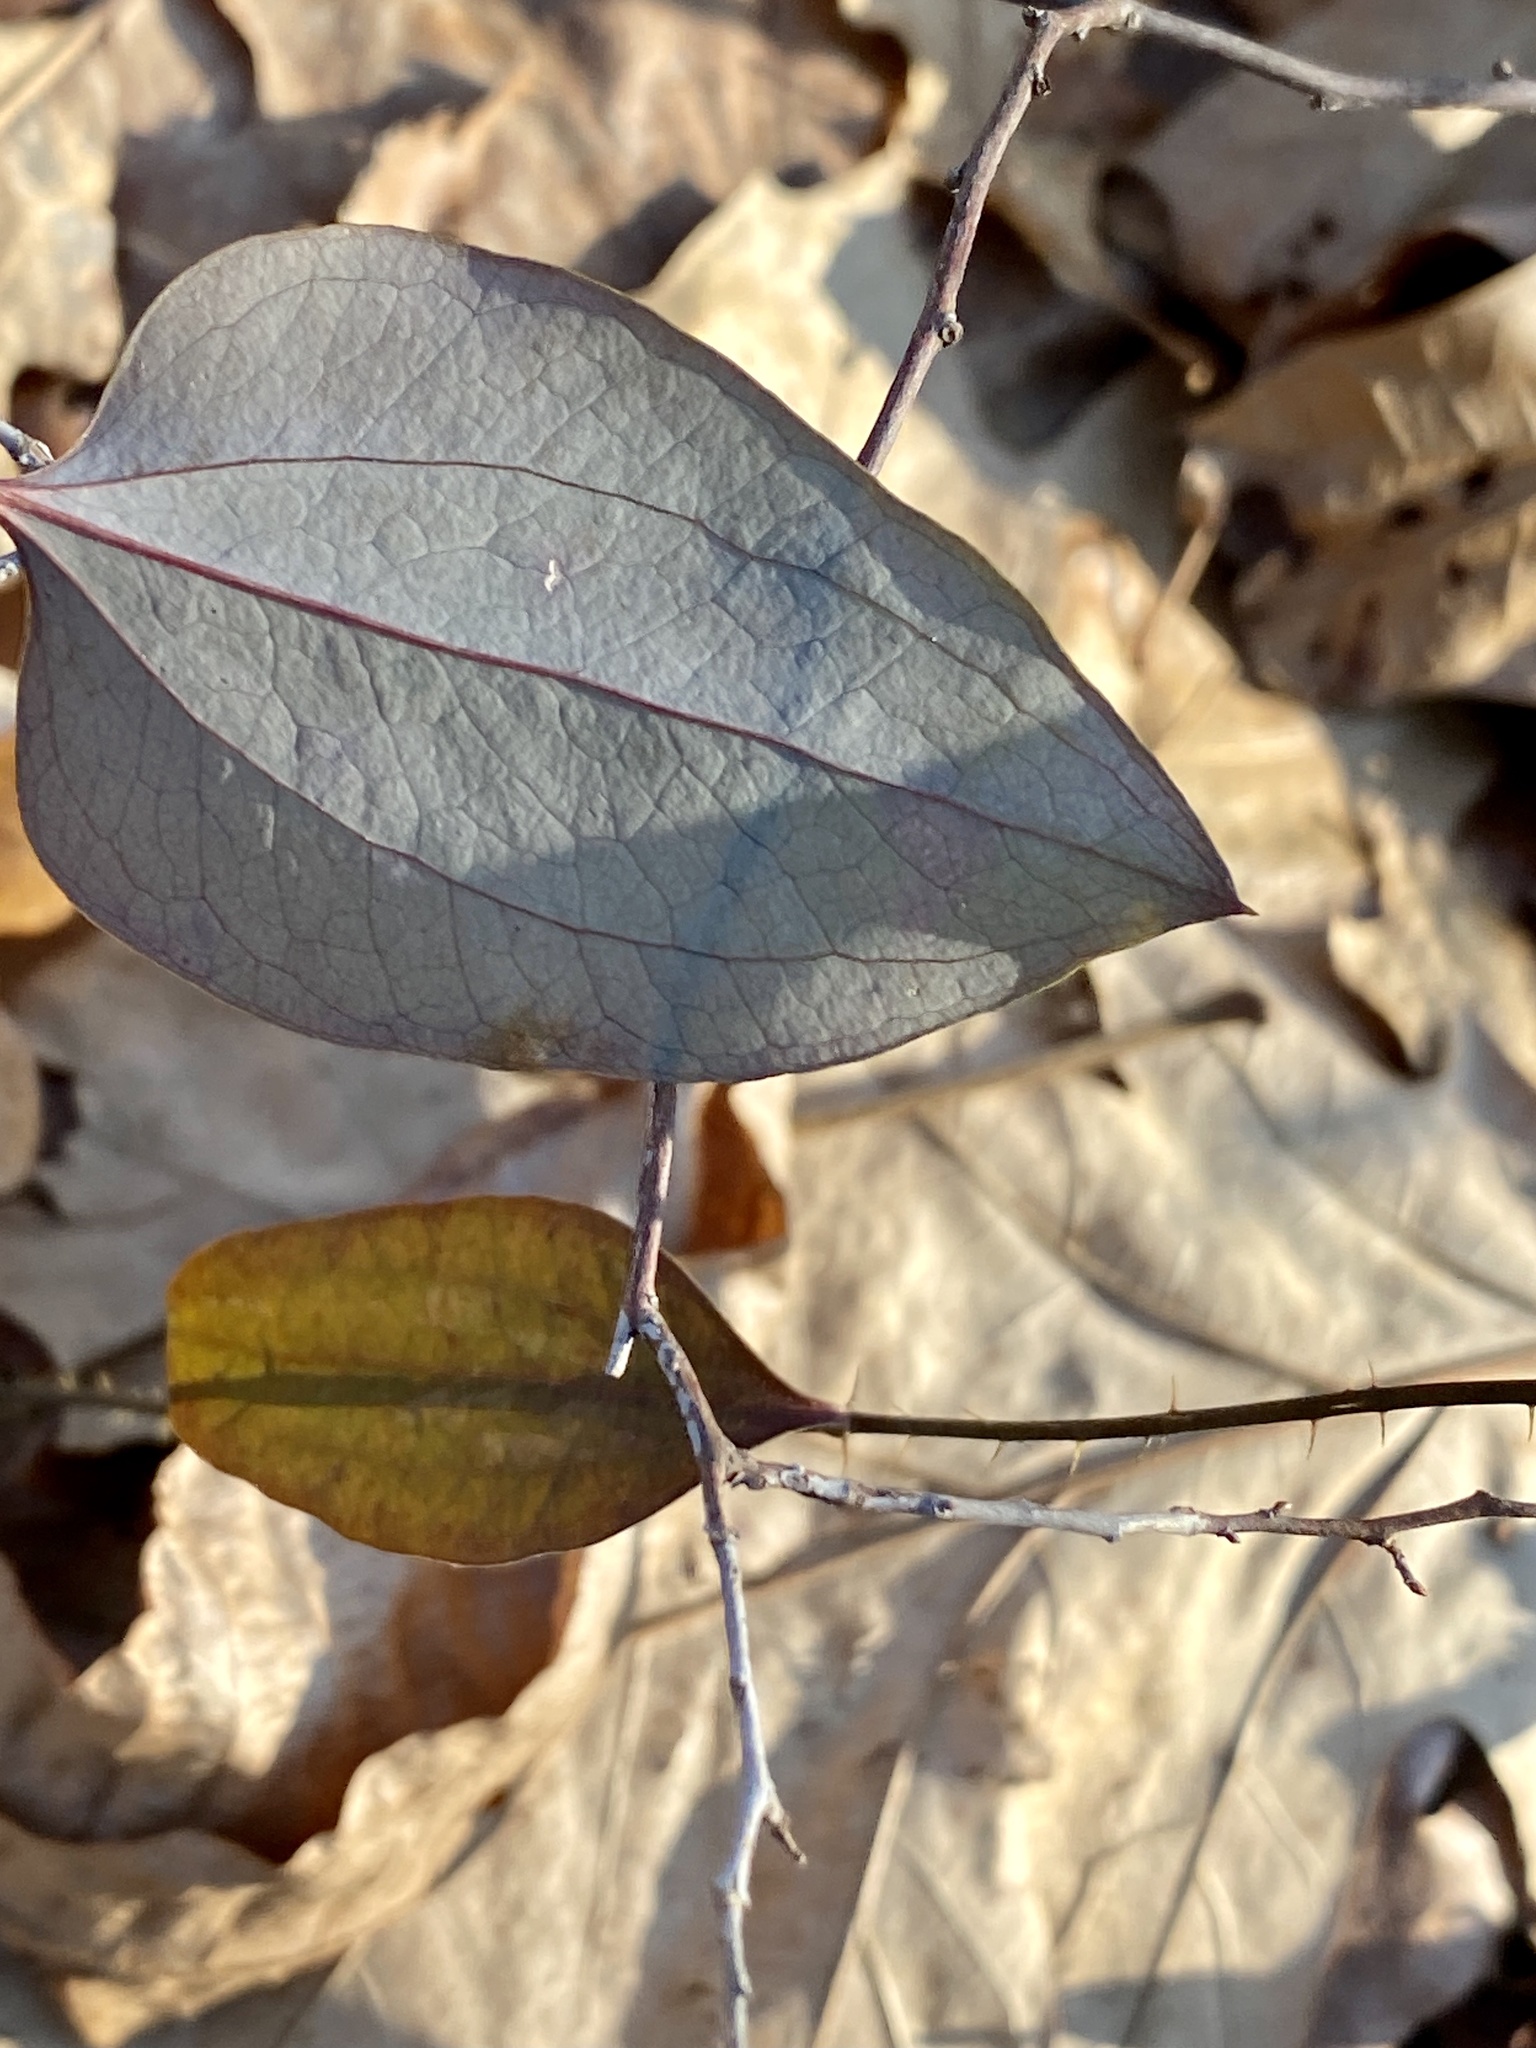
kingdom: Plantae
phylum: Tracheophyta
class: Liliopsida
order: Liliales
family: Smilacaceae
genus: Smilax
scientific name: Smilax glauca
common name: Cat greenbrier
